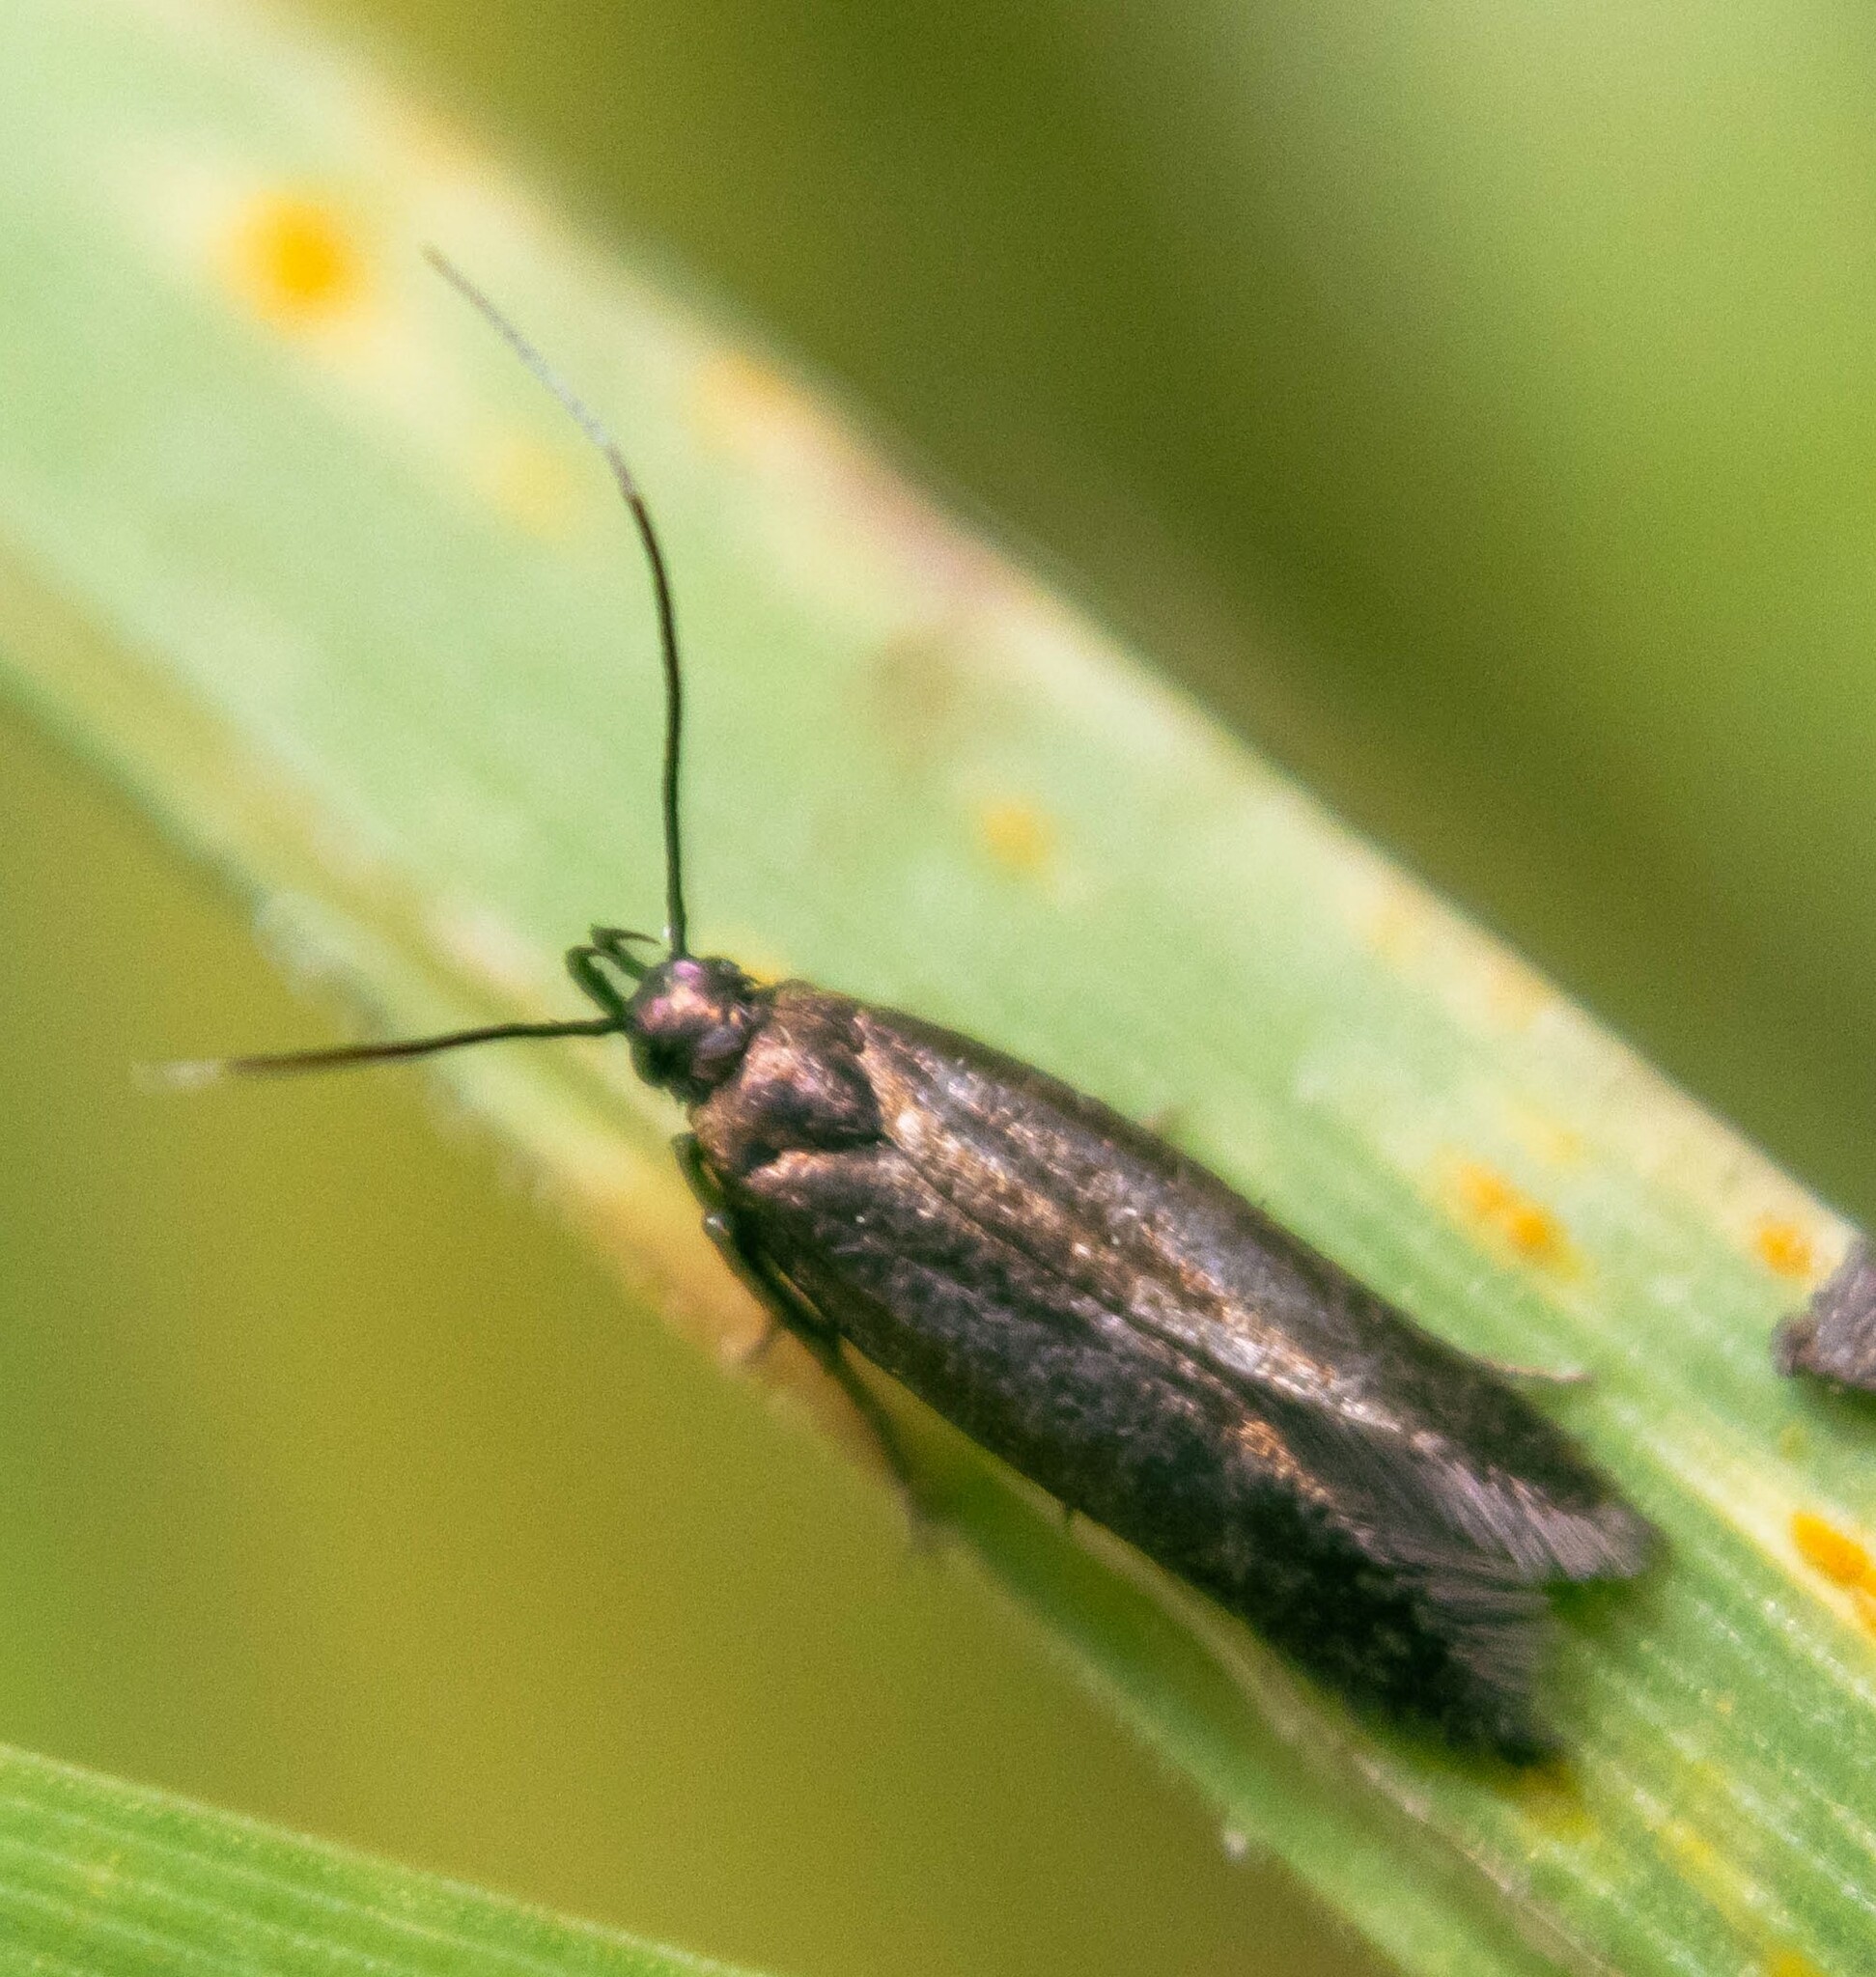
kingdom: Animalia
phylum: Arthropoda
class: Insecta
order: Lepidoptera
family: Gelechiidae
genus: Monochroa
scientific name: Monochroa tenebrella
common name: Common plain neb
